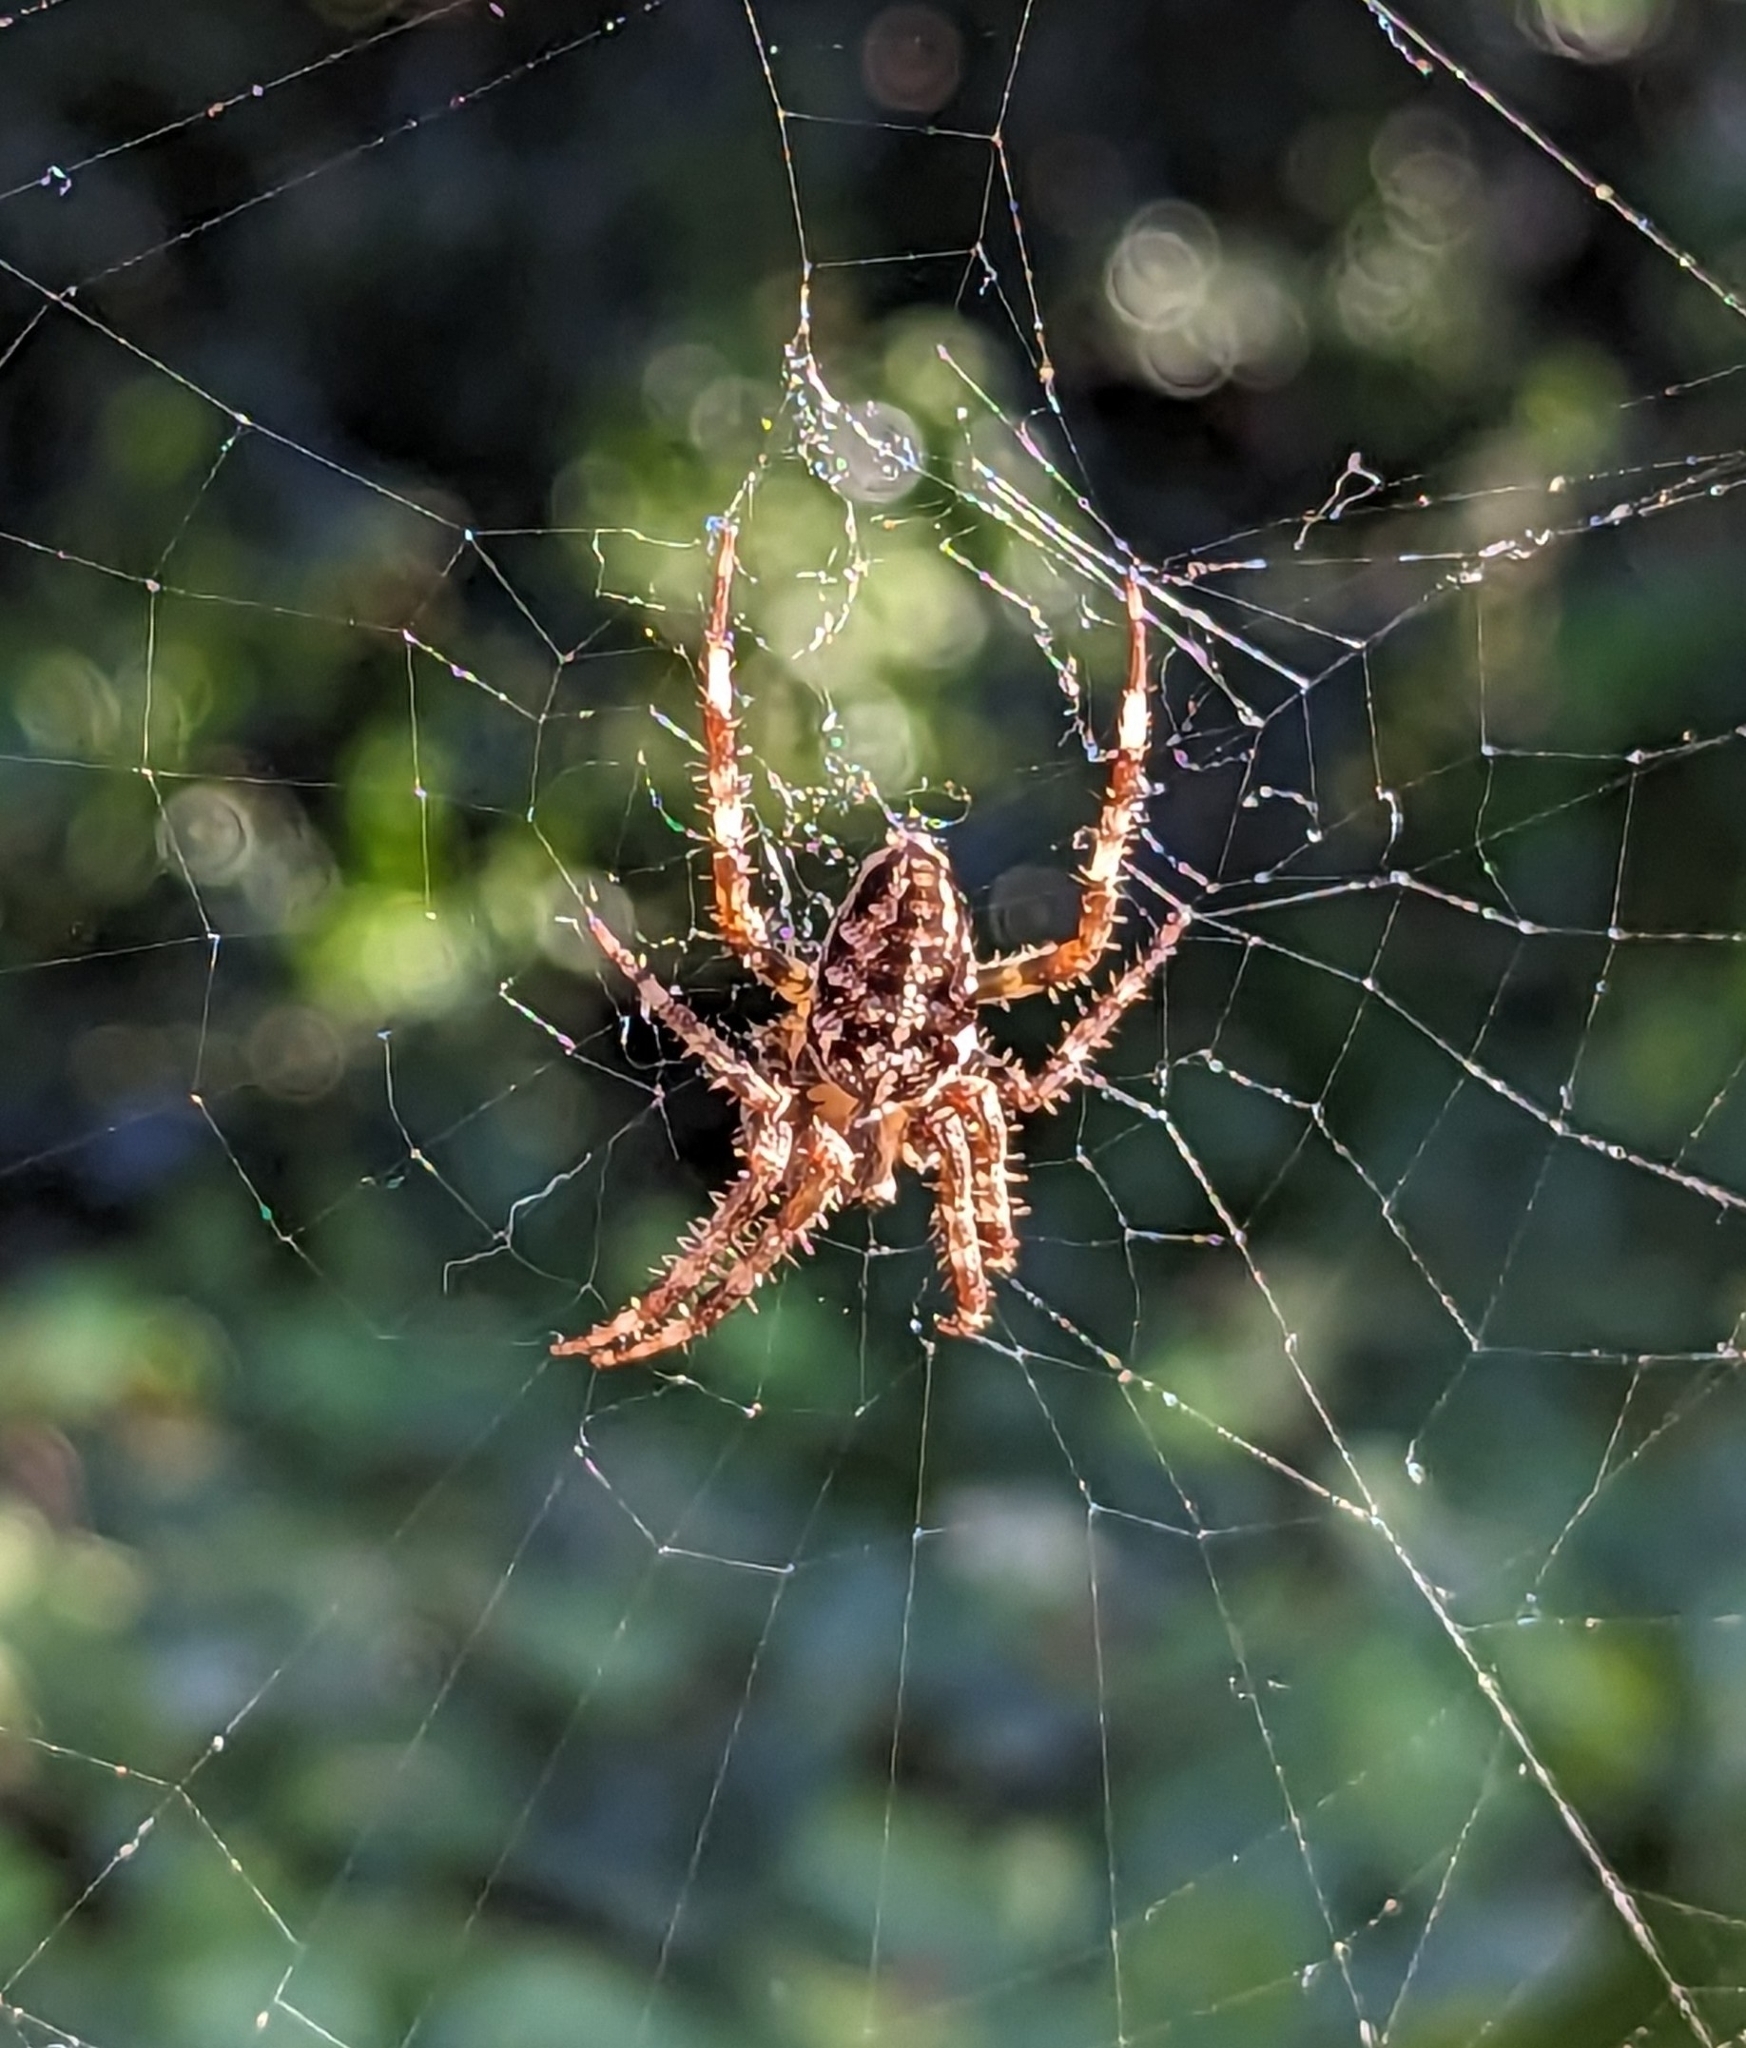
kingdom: Animalia
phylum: Arthropoda
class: Arachnida
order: Araneae
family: Araneidae
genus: Araneus
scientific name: Araneus diadematus
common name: Cross orbweaver
